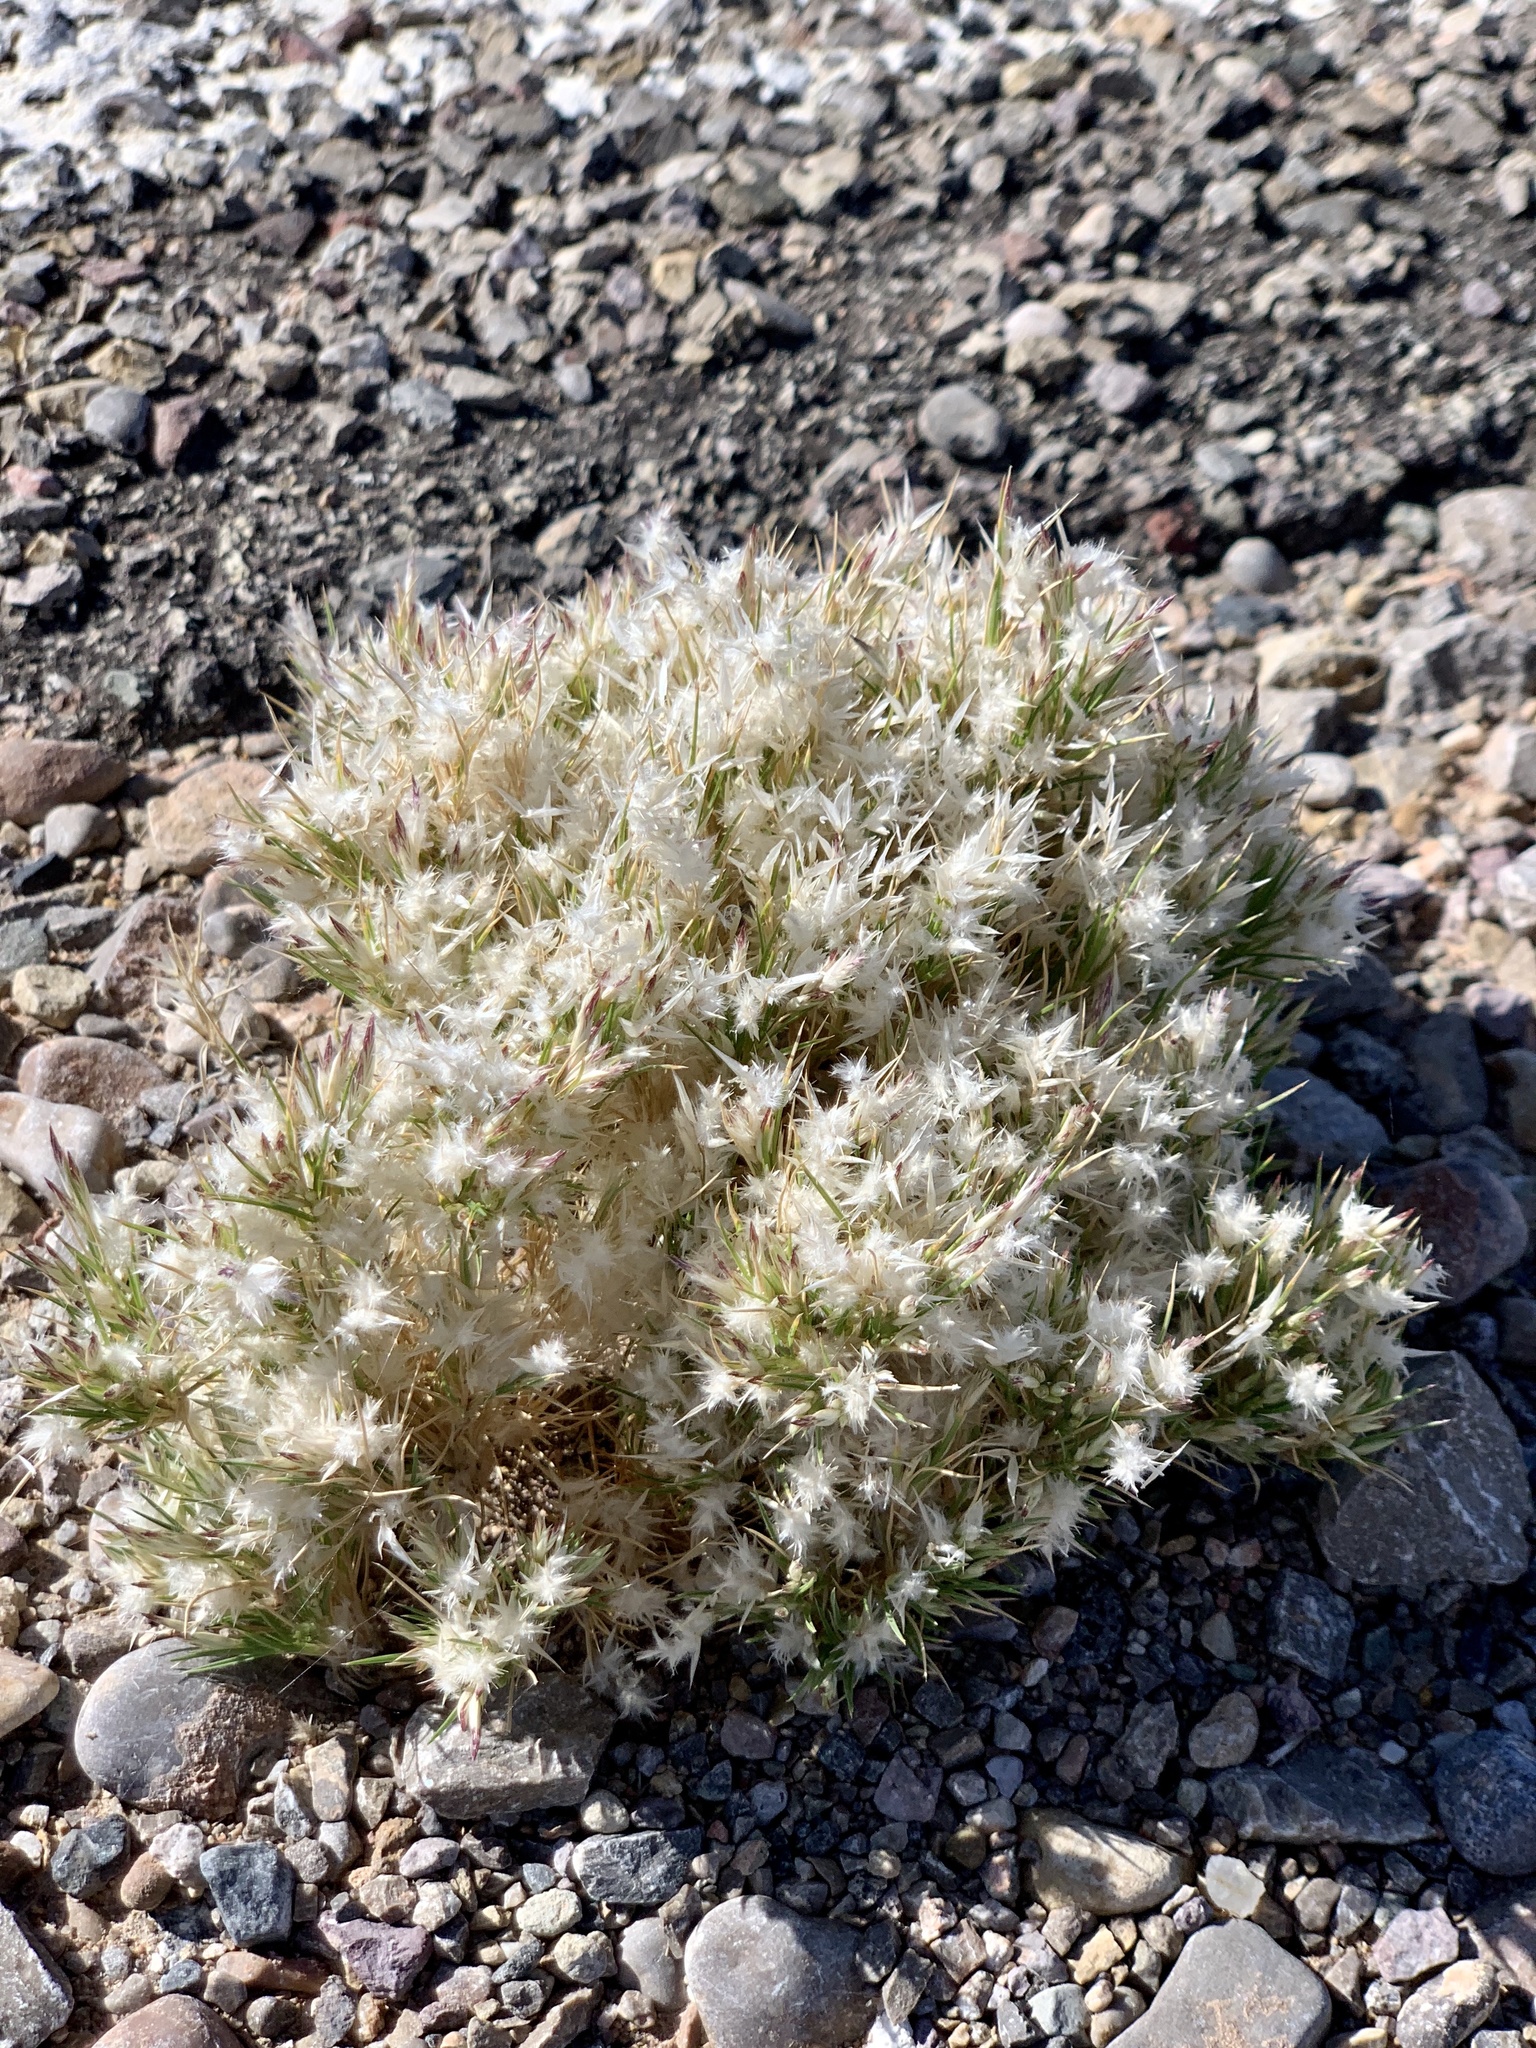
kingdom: Plantae
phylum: Tracheophyta
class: Liliopsida
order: Poales
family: Poaceae
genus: Dasyochloa
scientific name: Dasyochloa pulchella
